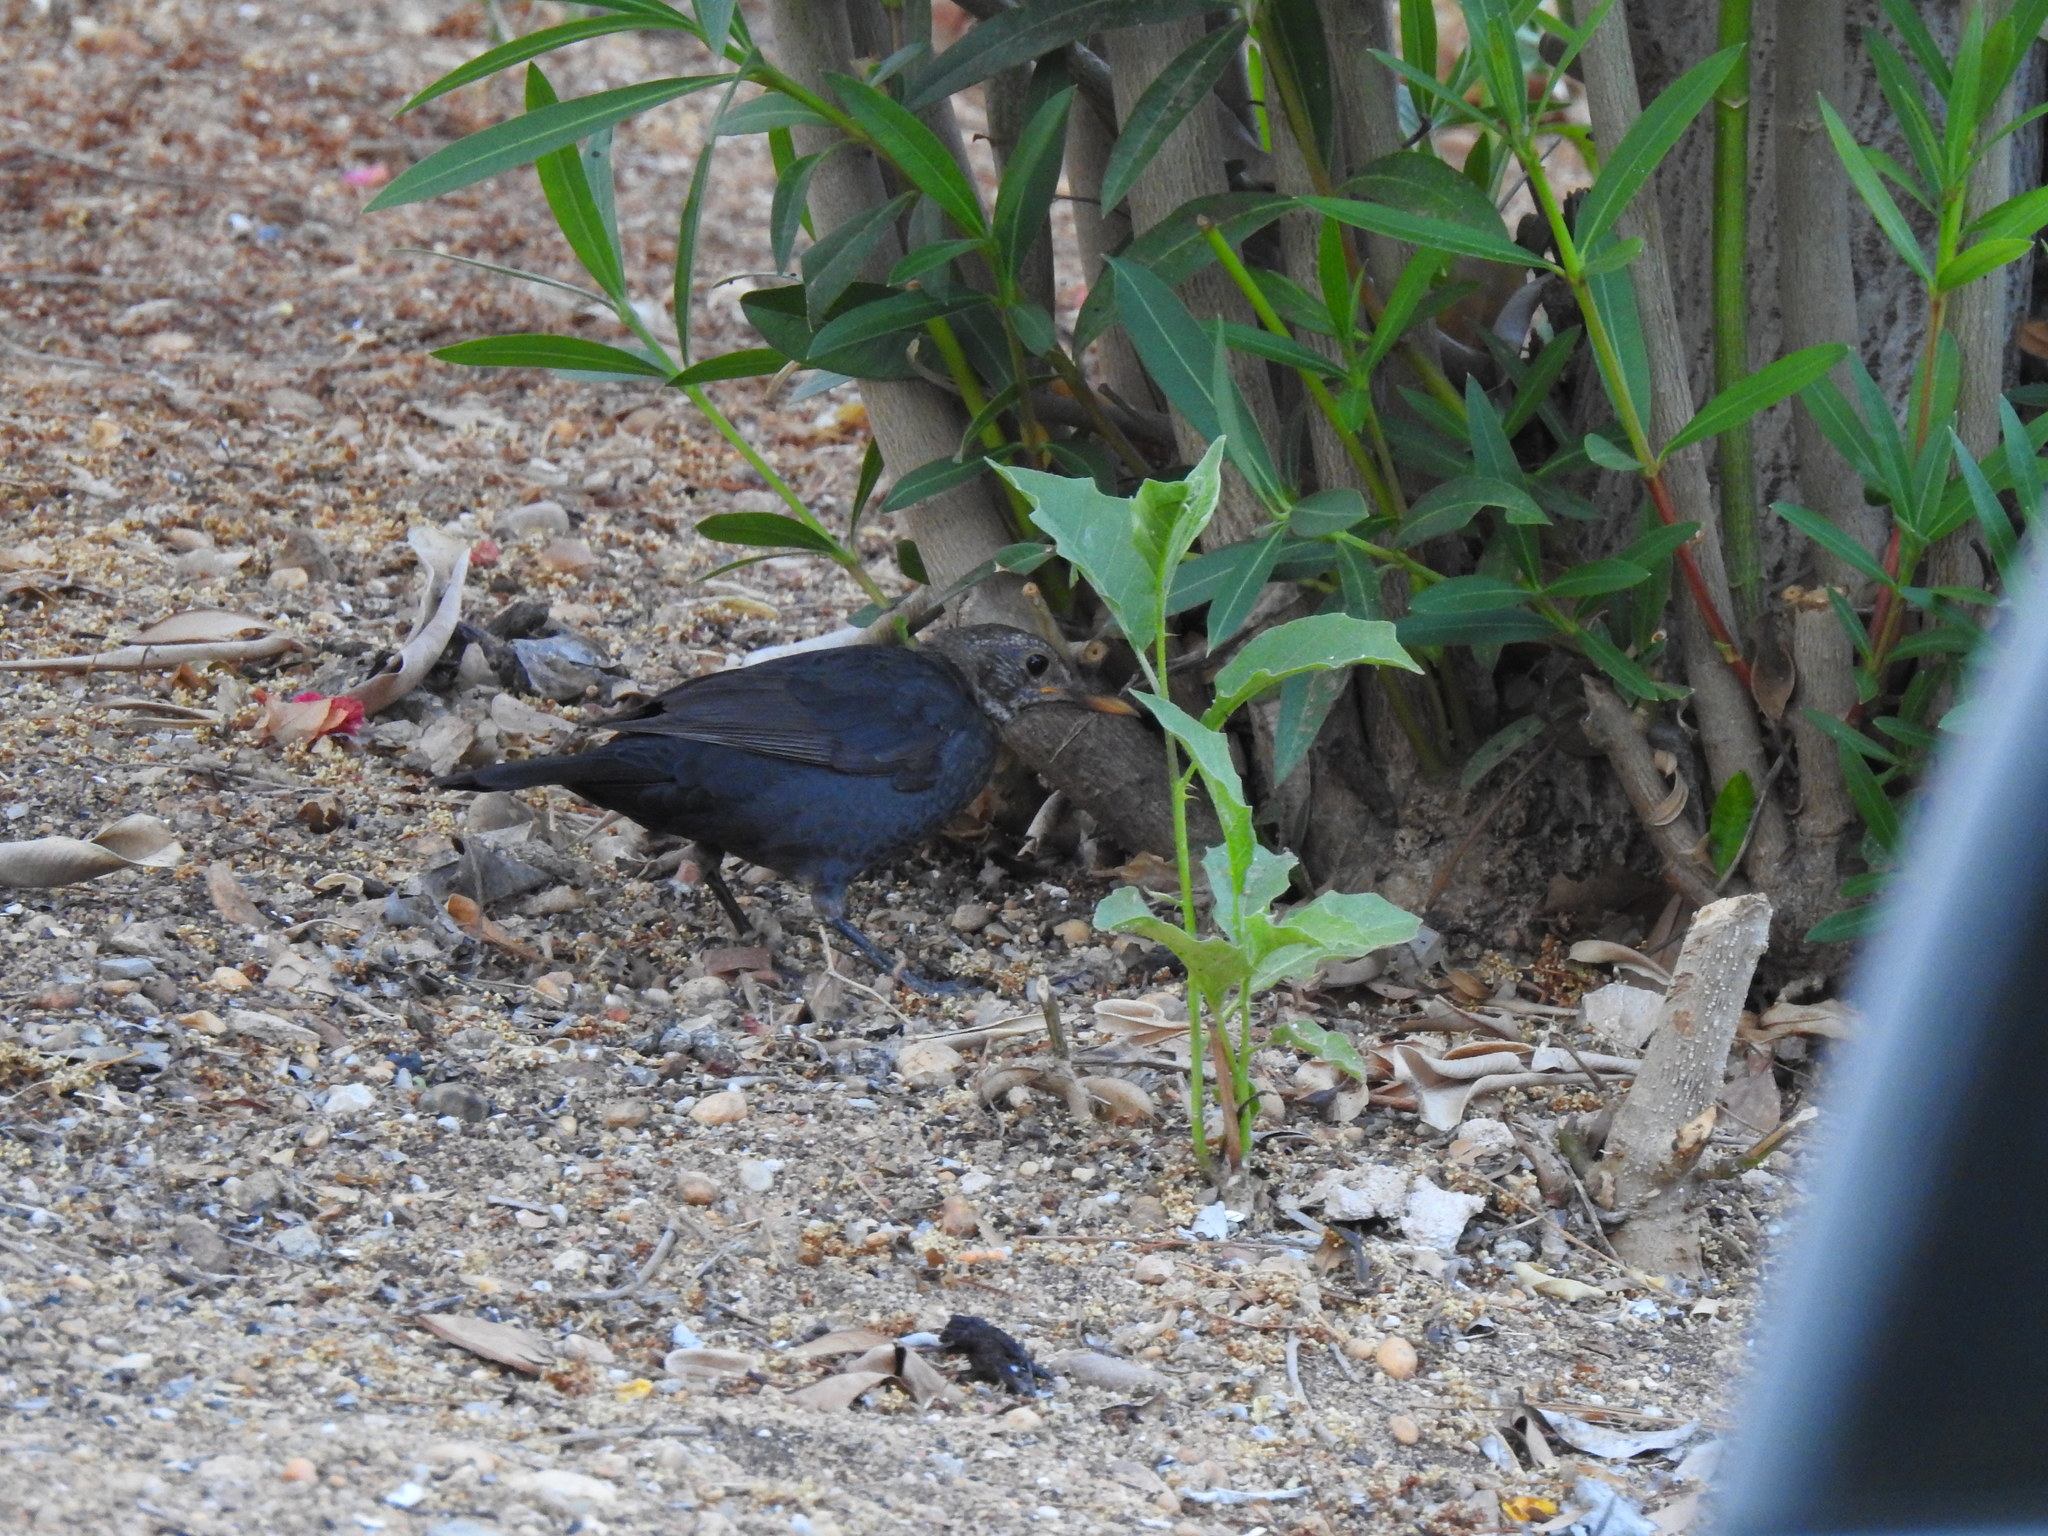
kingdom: Animalia
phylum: Chordata
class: Aves
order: Passeriformes
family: Turdidae
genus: Turdus
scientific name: Turdus merula
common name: Common blackbird
